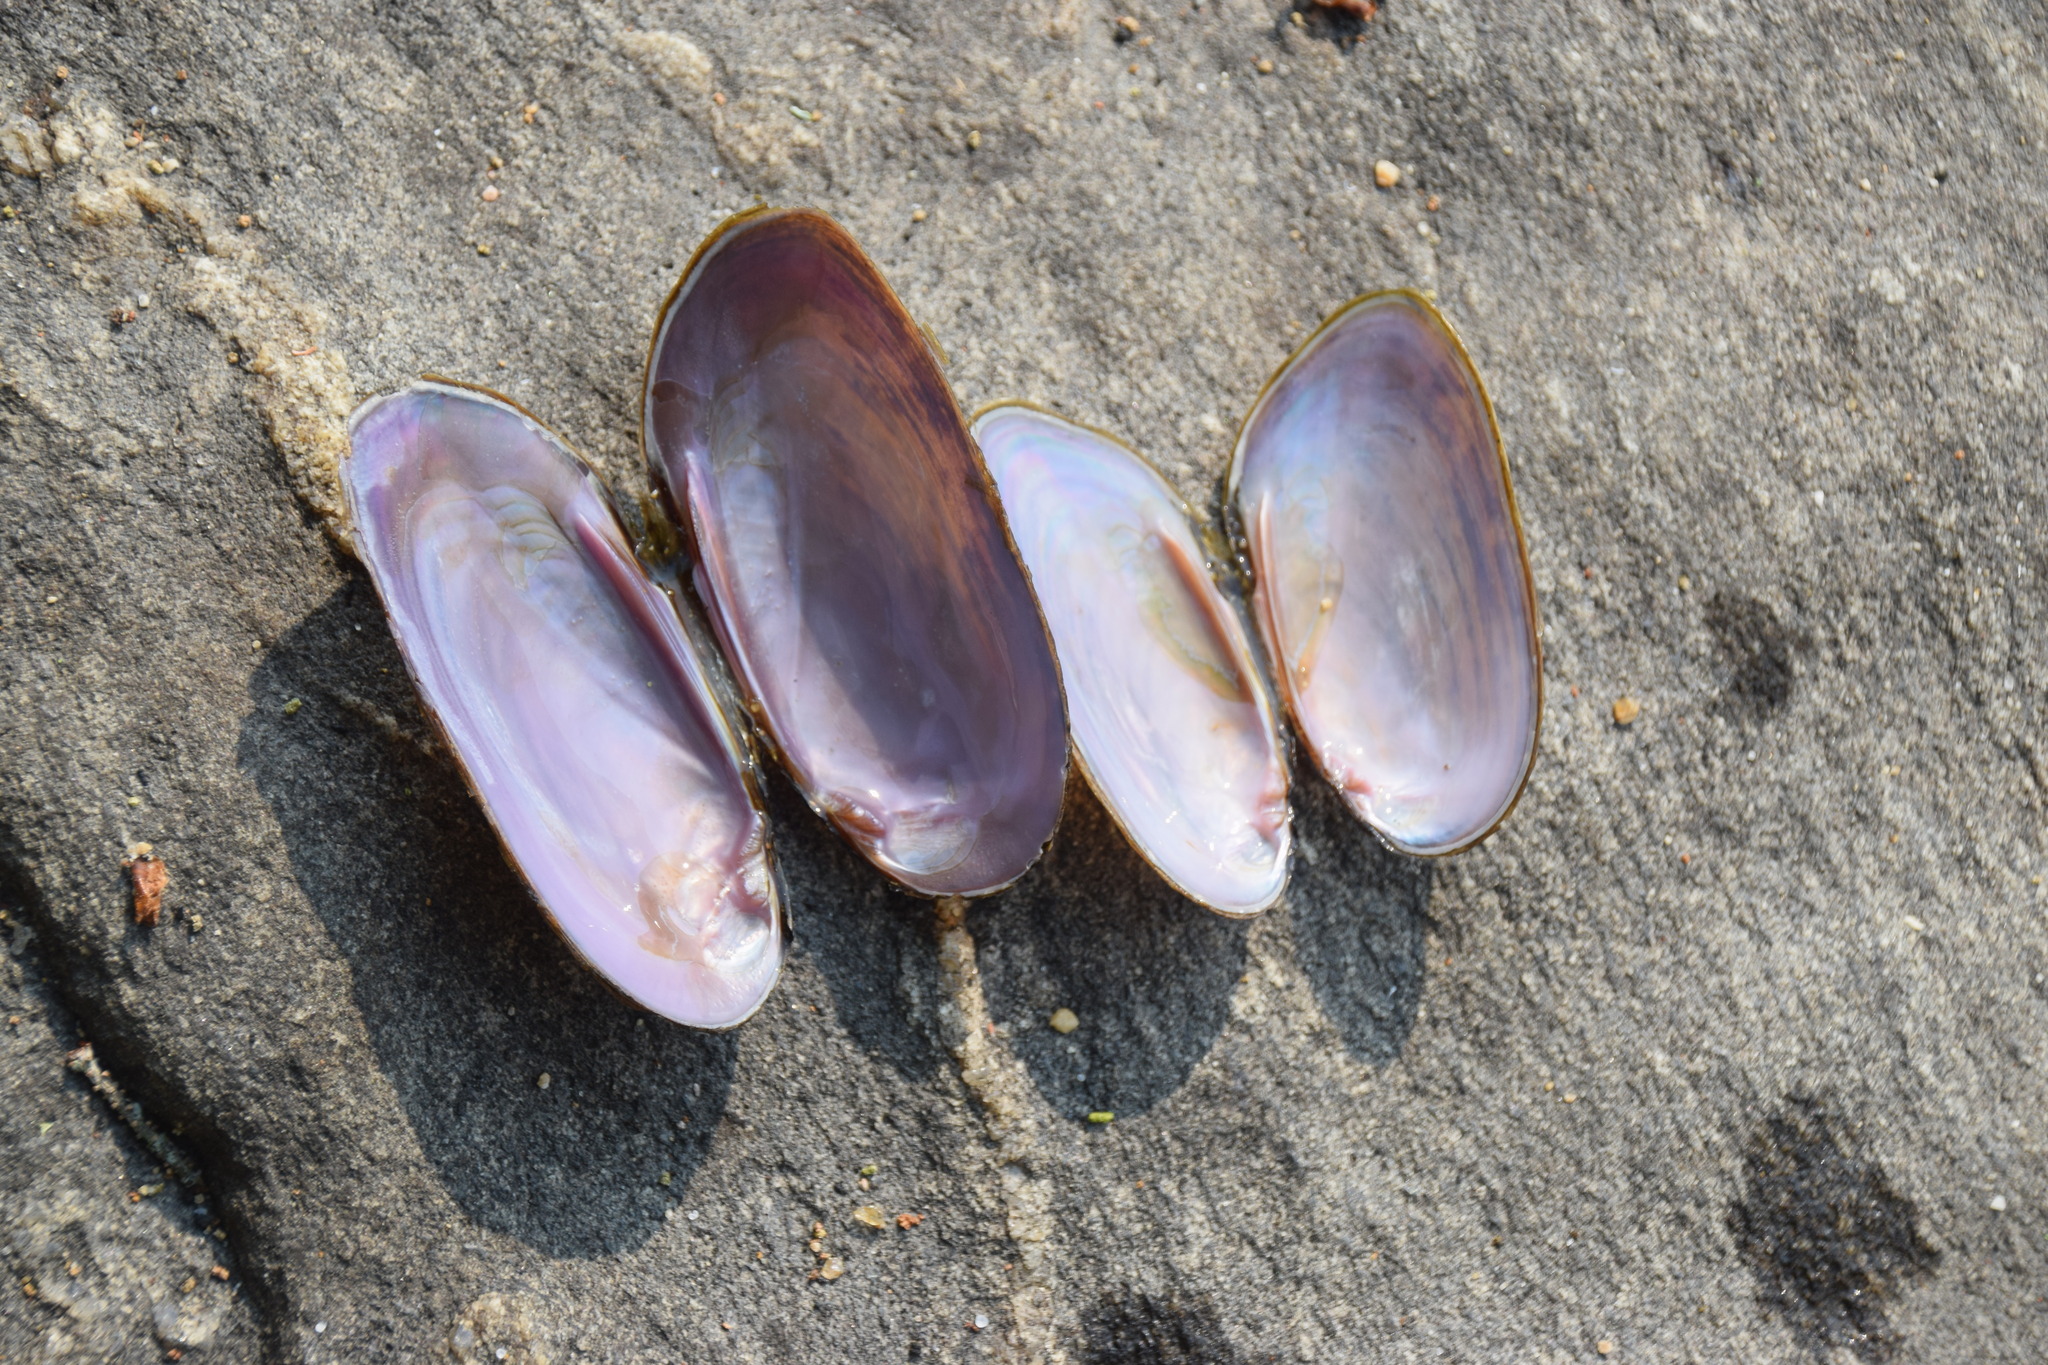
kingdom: Animalia
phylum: Mollusca
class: Bivalvia
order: Unionida
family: Unionidae
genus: Elliptio
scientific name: Elliptio complanata
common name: Eastern elliptio
